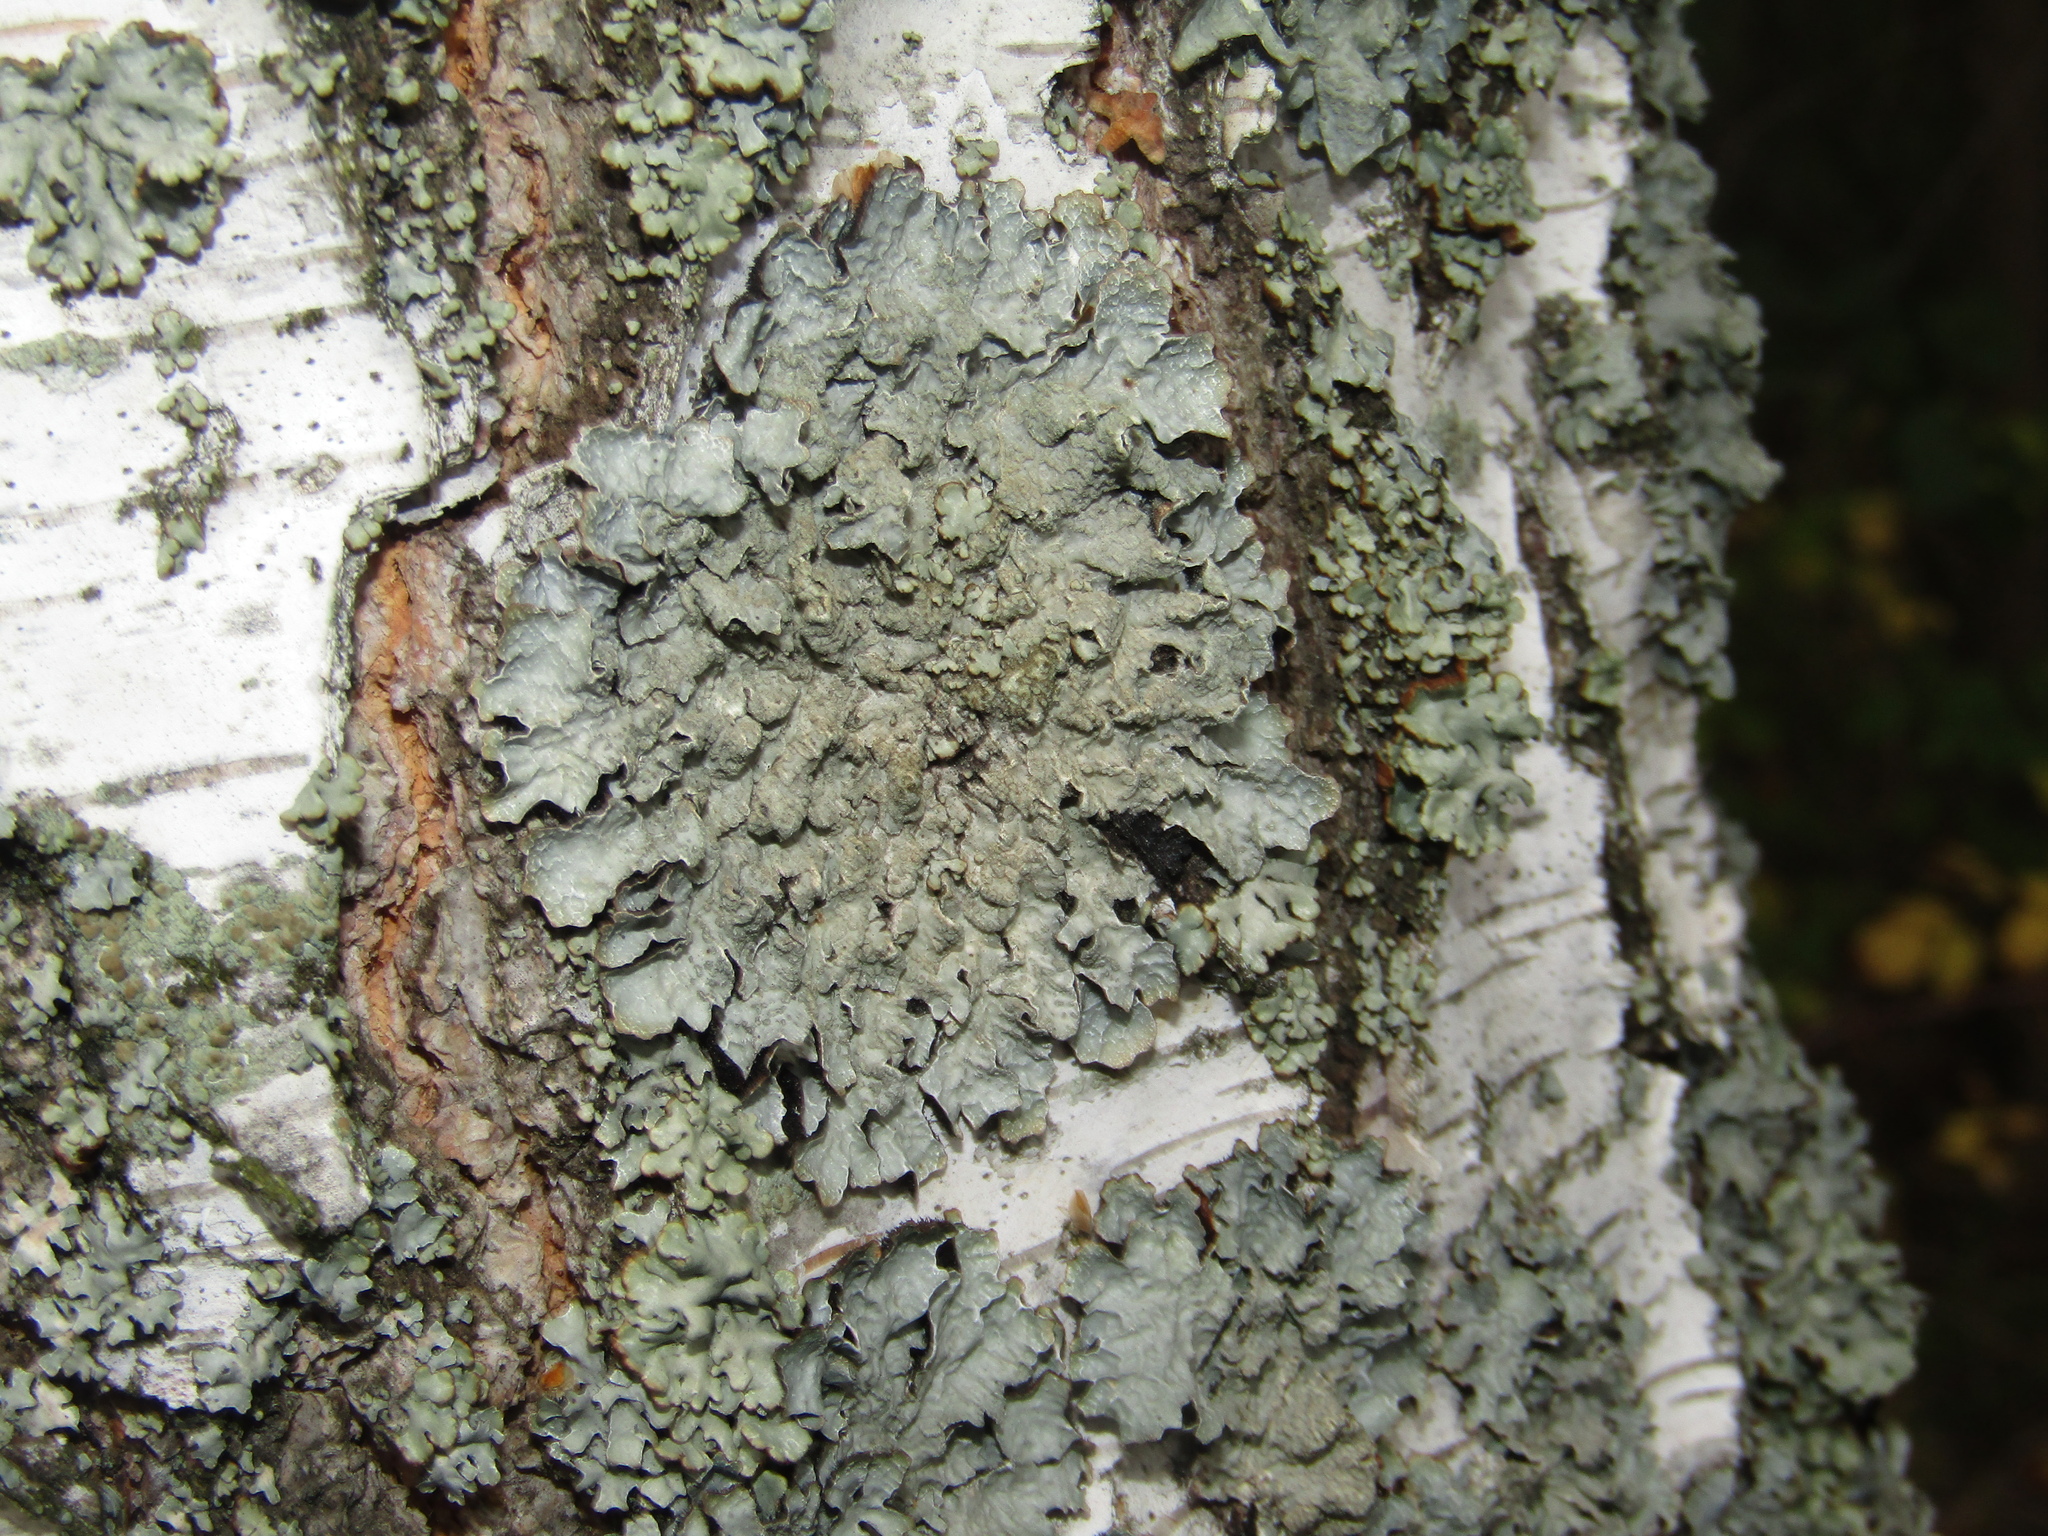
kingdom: Fungi
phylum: Ascomycota
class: Lecanoromycetes
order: Lecanorales
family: Parmeliaceae
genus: Parmelia
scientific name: Parmelia sulcata
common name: Netted shield lichen
